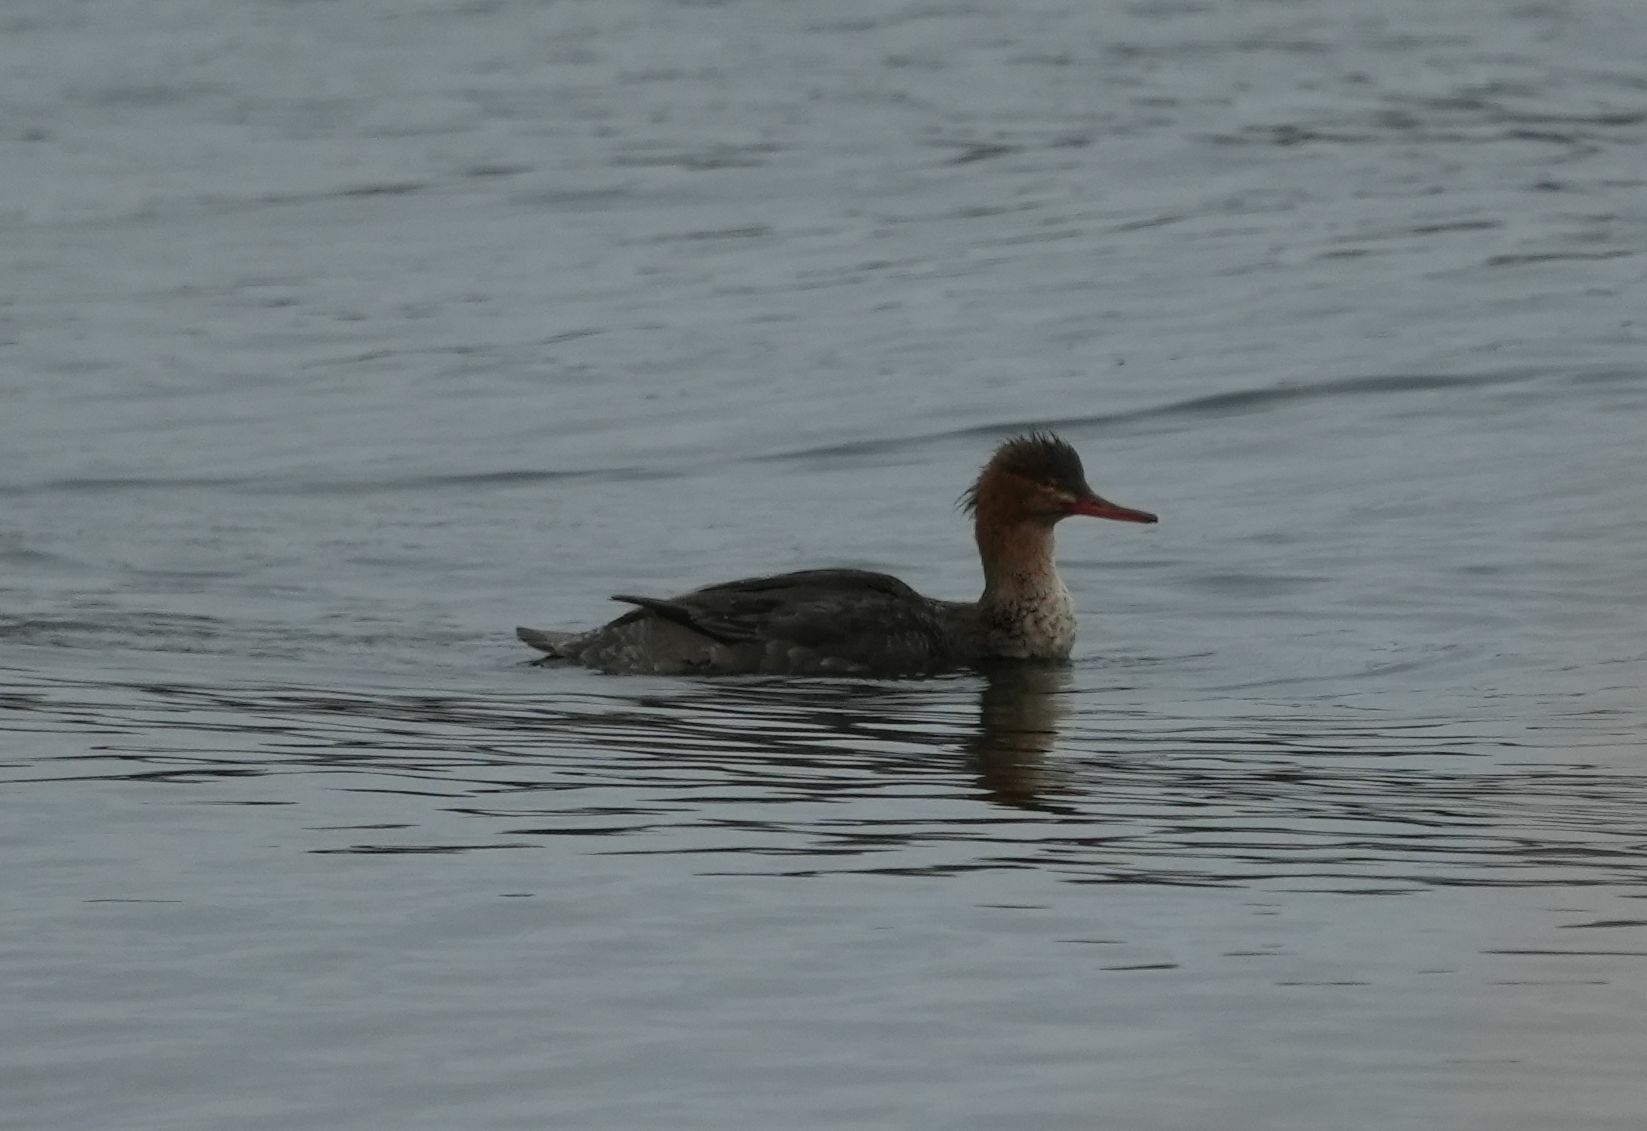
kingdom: Animalia
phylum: Chordata
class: Aves
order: Anseriformes
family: Anatidae
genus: Mergus
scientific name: Mergus serrator
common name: Red-breasted merganser
